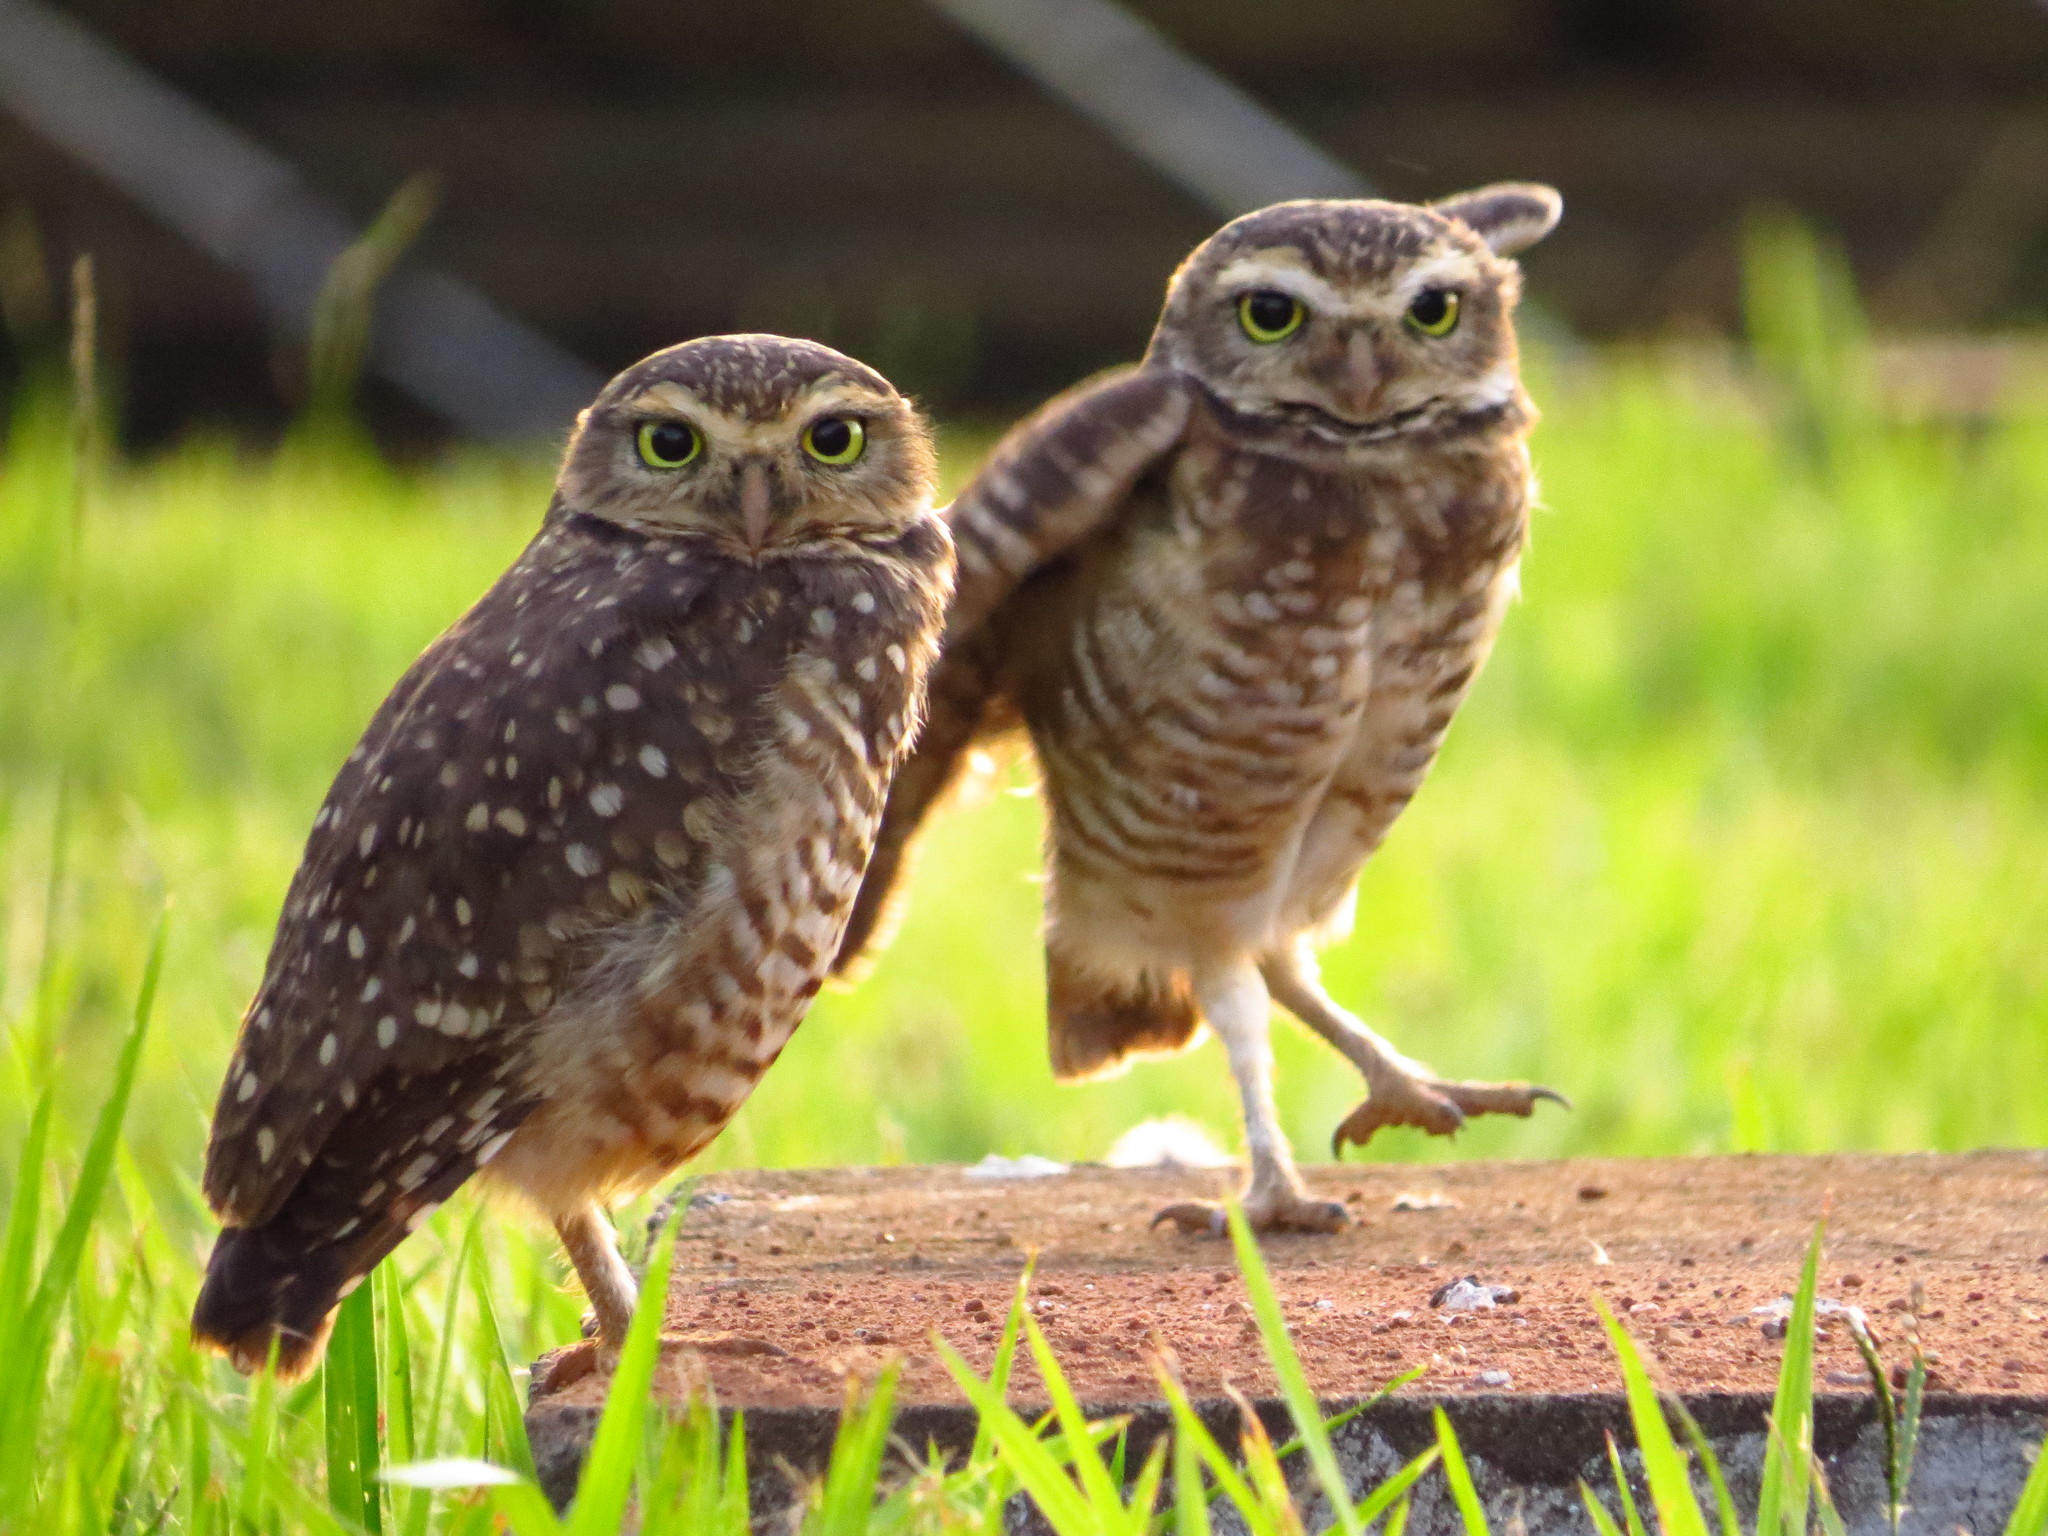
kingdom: Animalia
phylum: Chordata
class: Aves
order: Strigiformes
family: Strigidae
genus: Athene
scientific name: Athene cunicularia
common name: Burrowing owl
